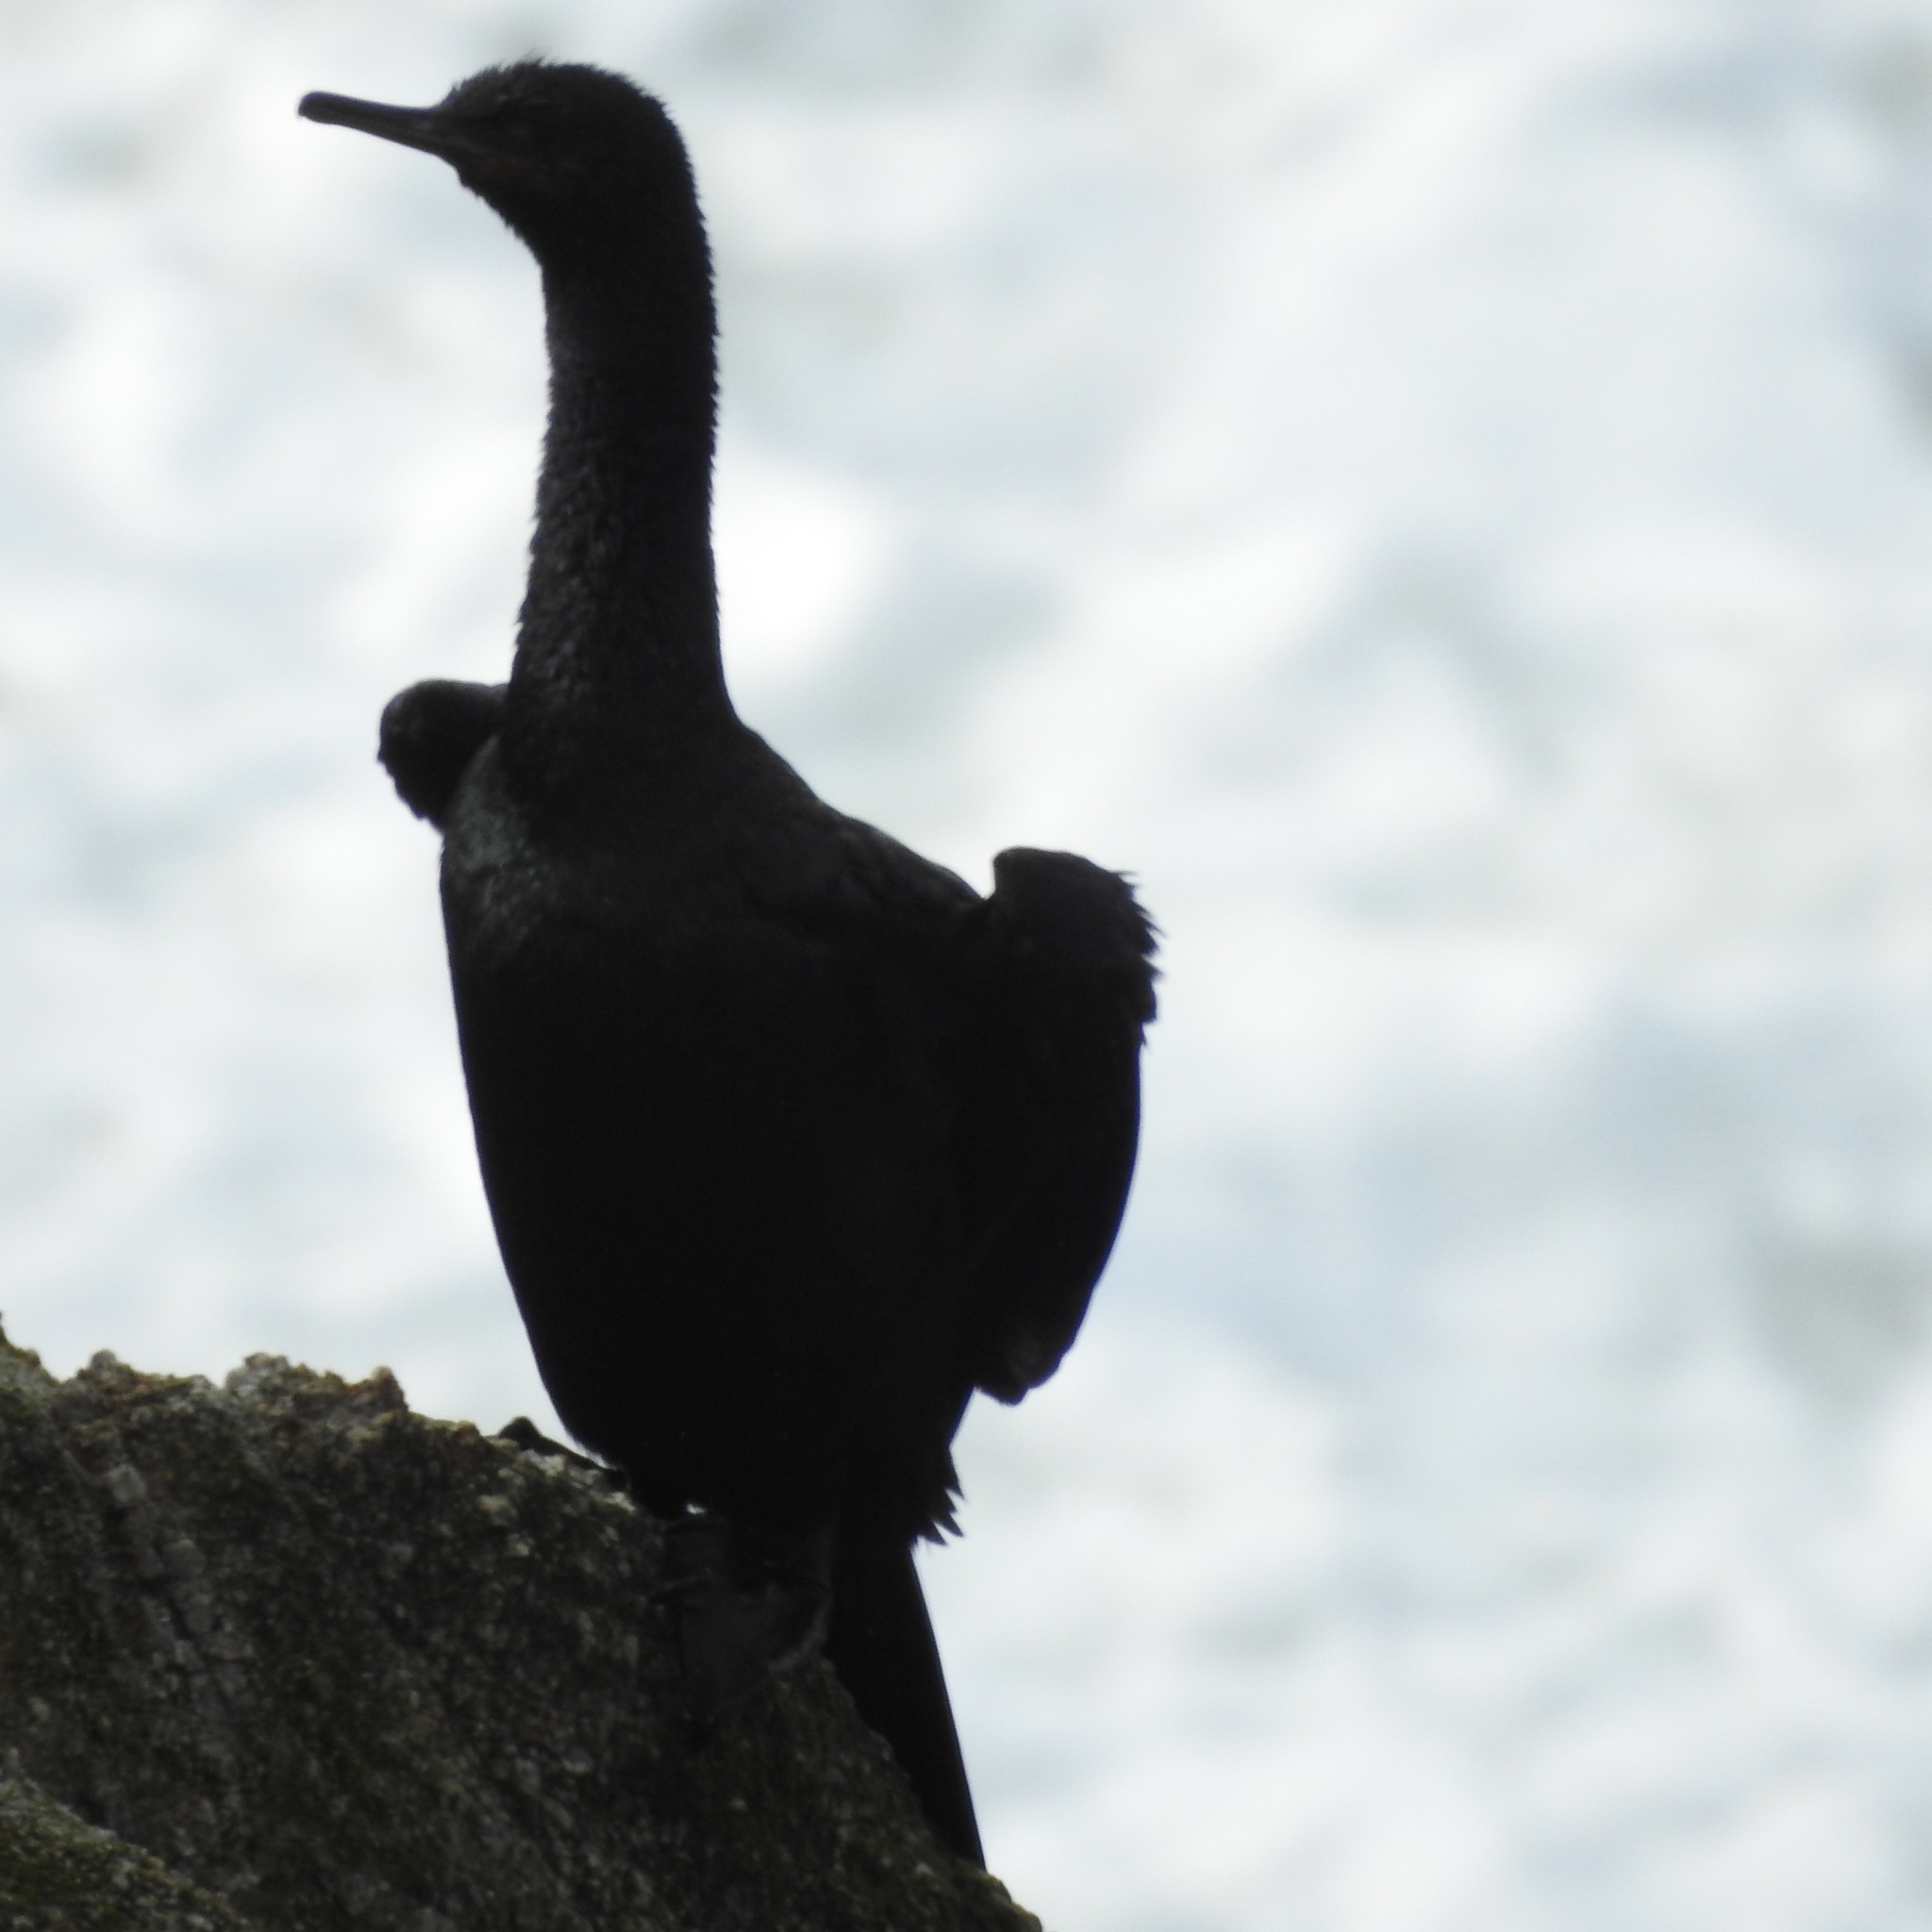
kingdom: Animalia
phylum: Chordata
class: Aves
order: Suliformes
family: Phalacrocoracidae
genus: Phalacrocorax
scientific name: Phalacrocorax pelagicus
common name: Pelagic cormorant
